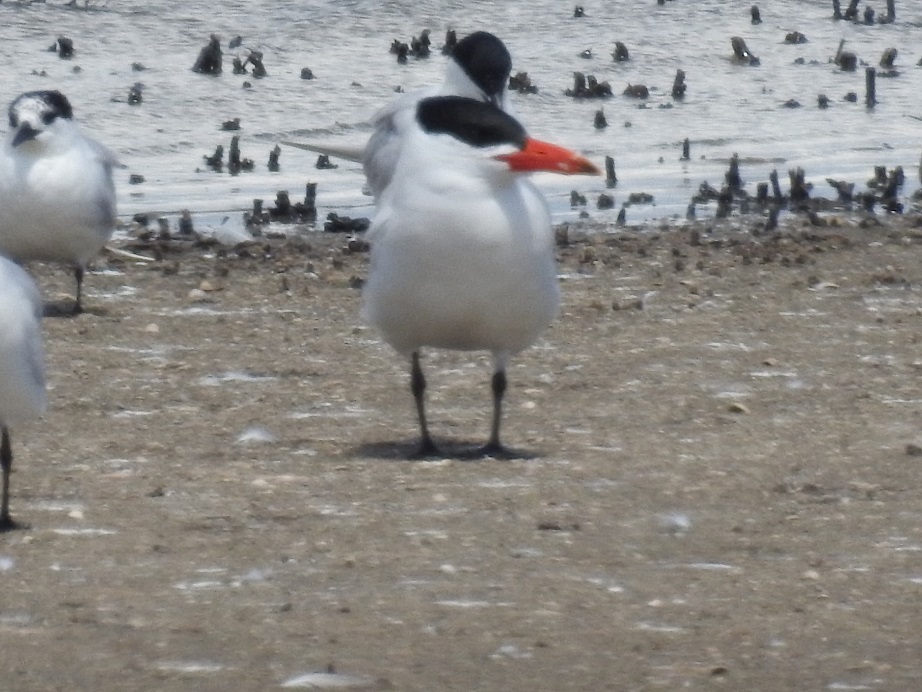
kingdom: Animalia
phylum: Chordata
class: Aves
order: Charadriiformes
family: Laridae
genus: Hydroprogne
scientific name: Hydroprogne caspia
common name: Caspian tern
